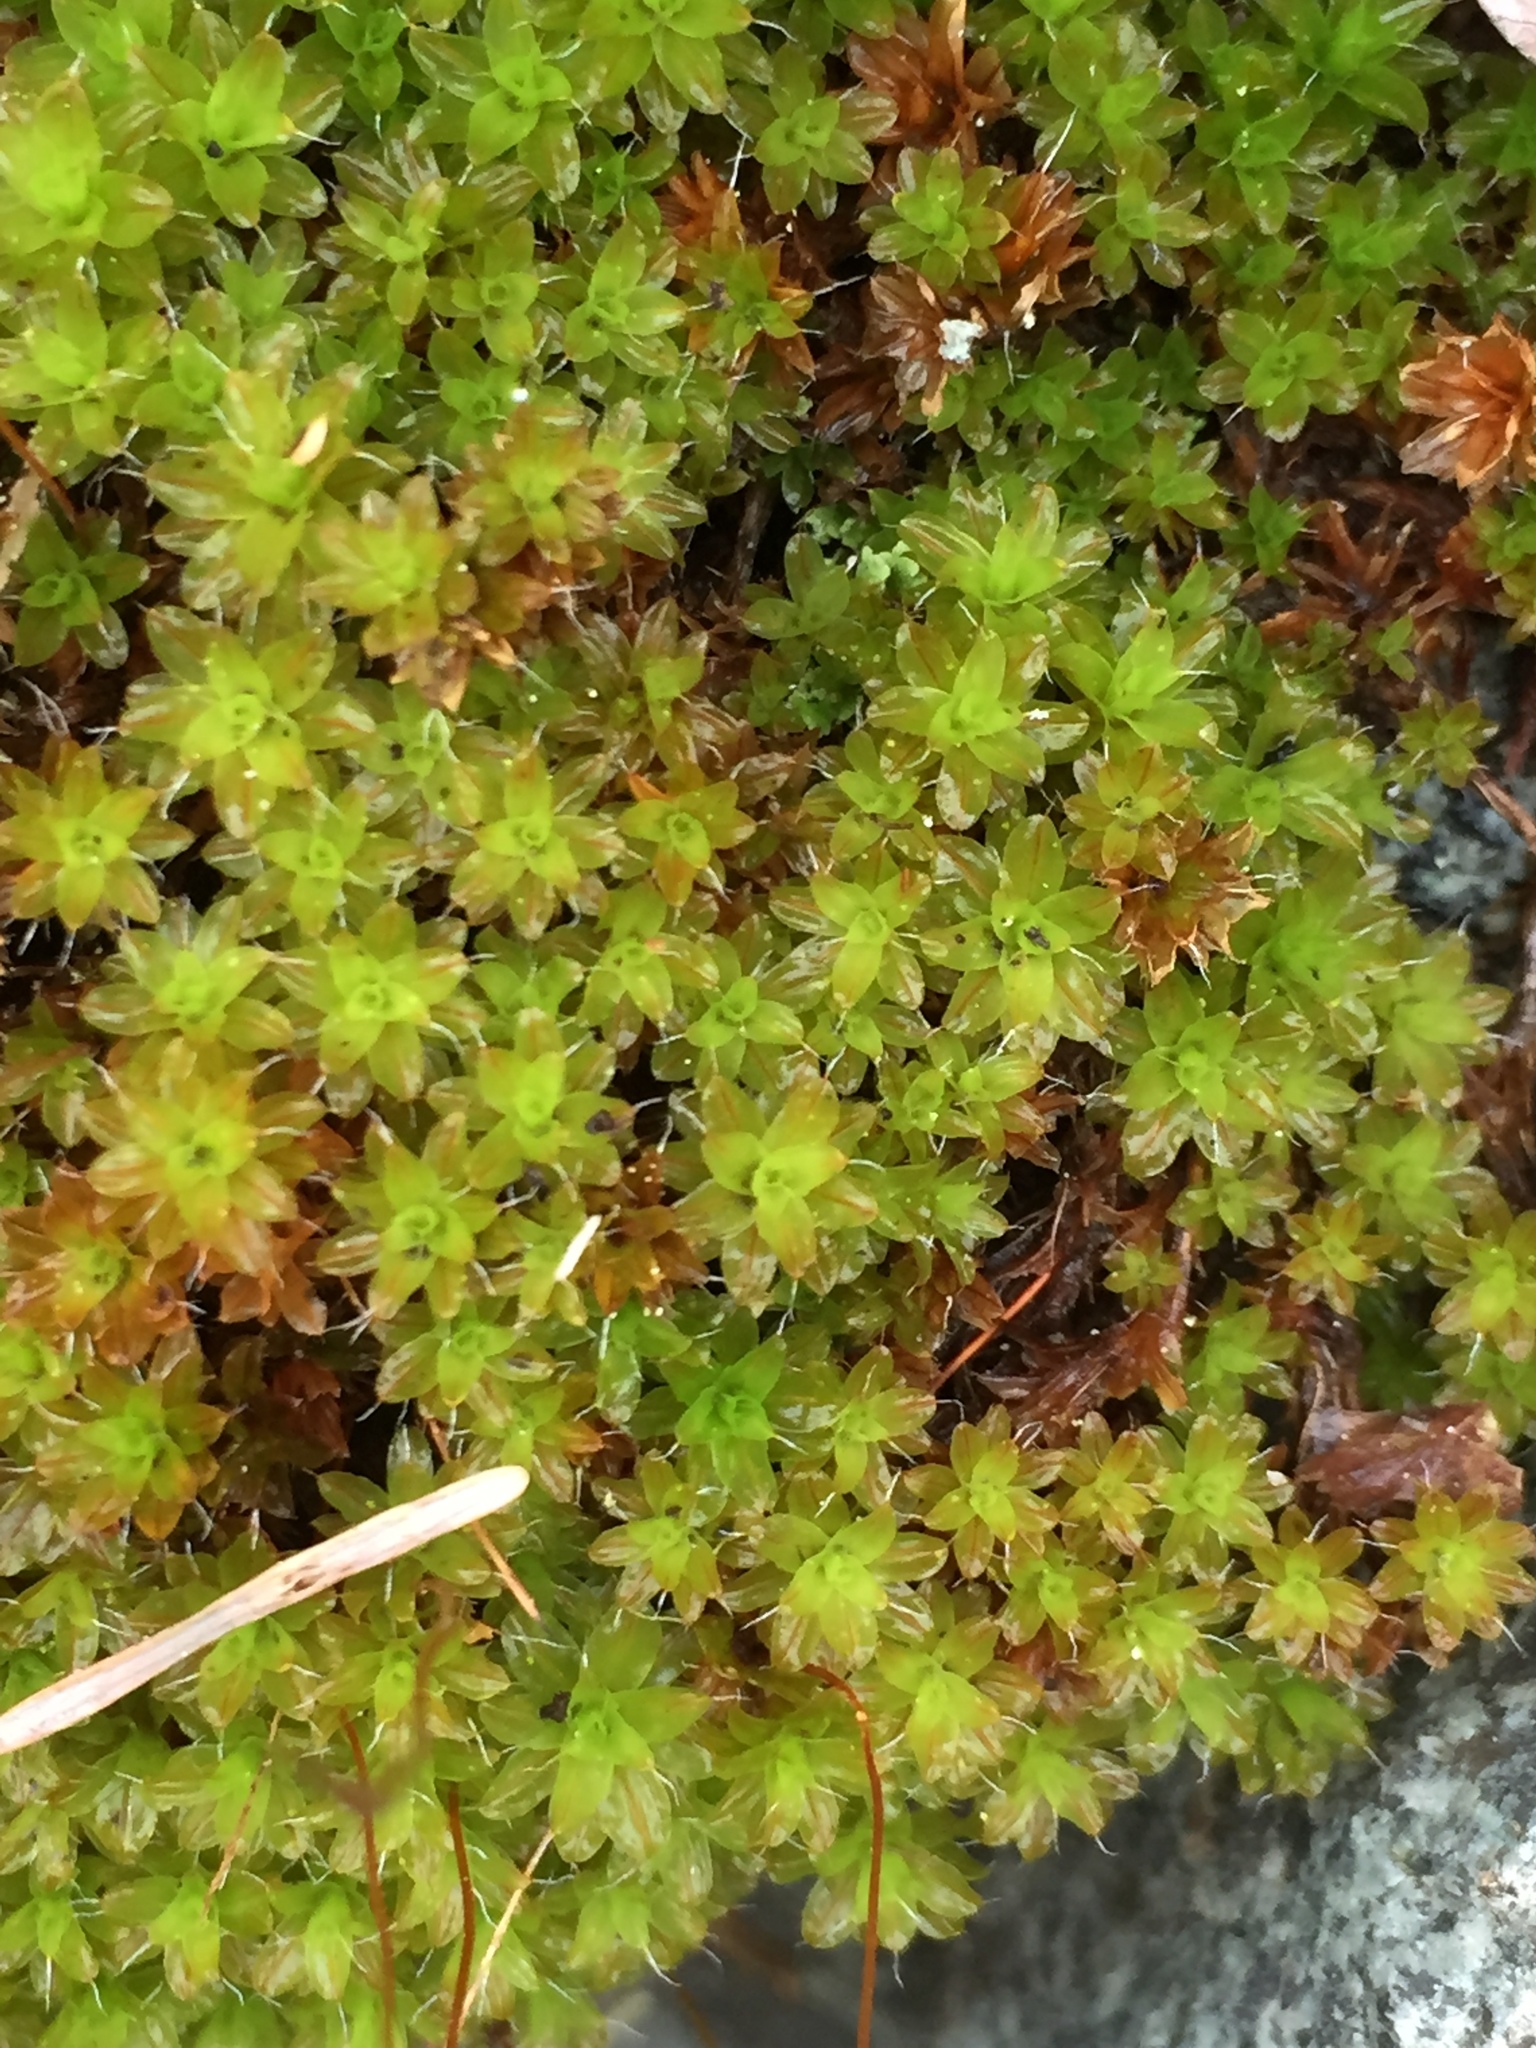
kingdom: Plantae
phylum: Bryophyta
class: Bryopsida
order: Pottiales
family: Pottiaceae
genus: Syntrichia
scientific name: Syntrichia ruralis
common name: Sidewalk screw moss
